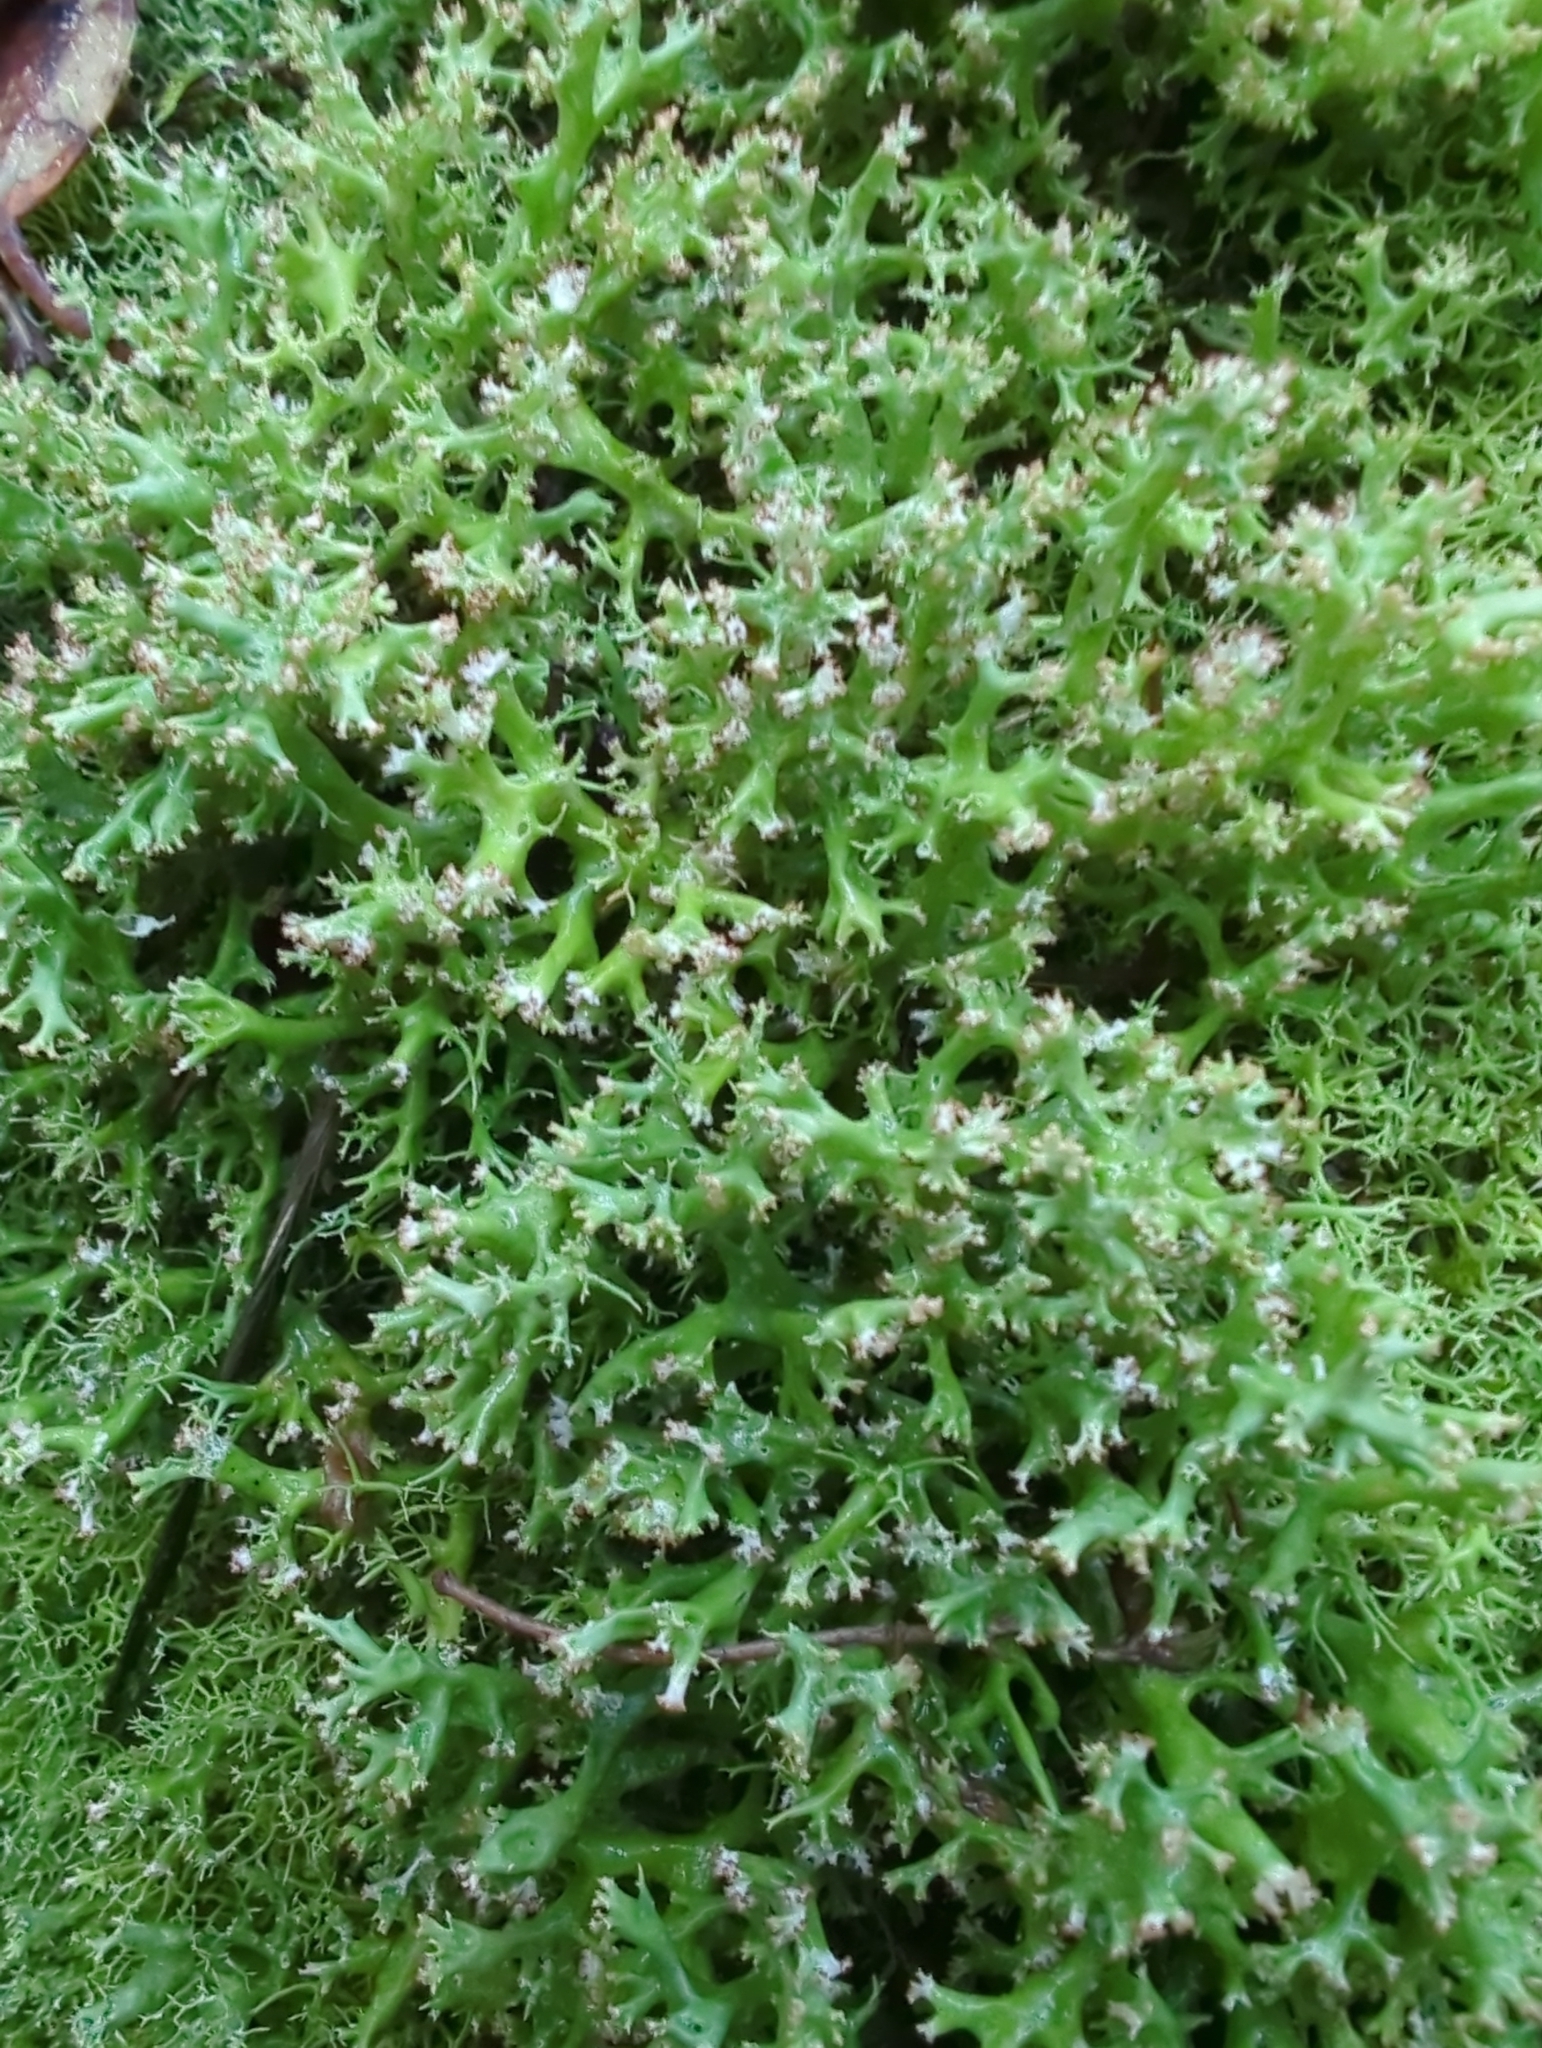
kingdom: Fungi
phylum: Ascomycota
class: Lecanoromycetes
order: Lecanorales
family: Cladoniaceae
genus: Cladia
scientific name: Cladia aggregata
